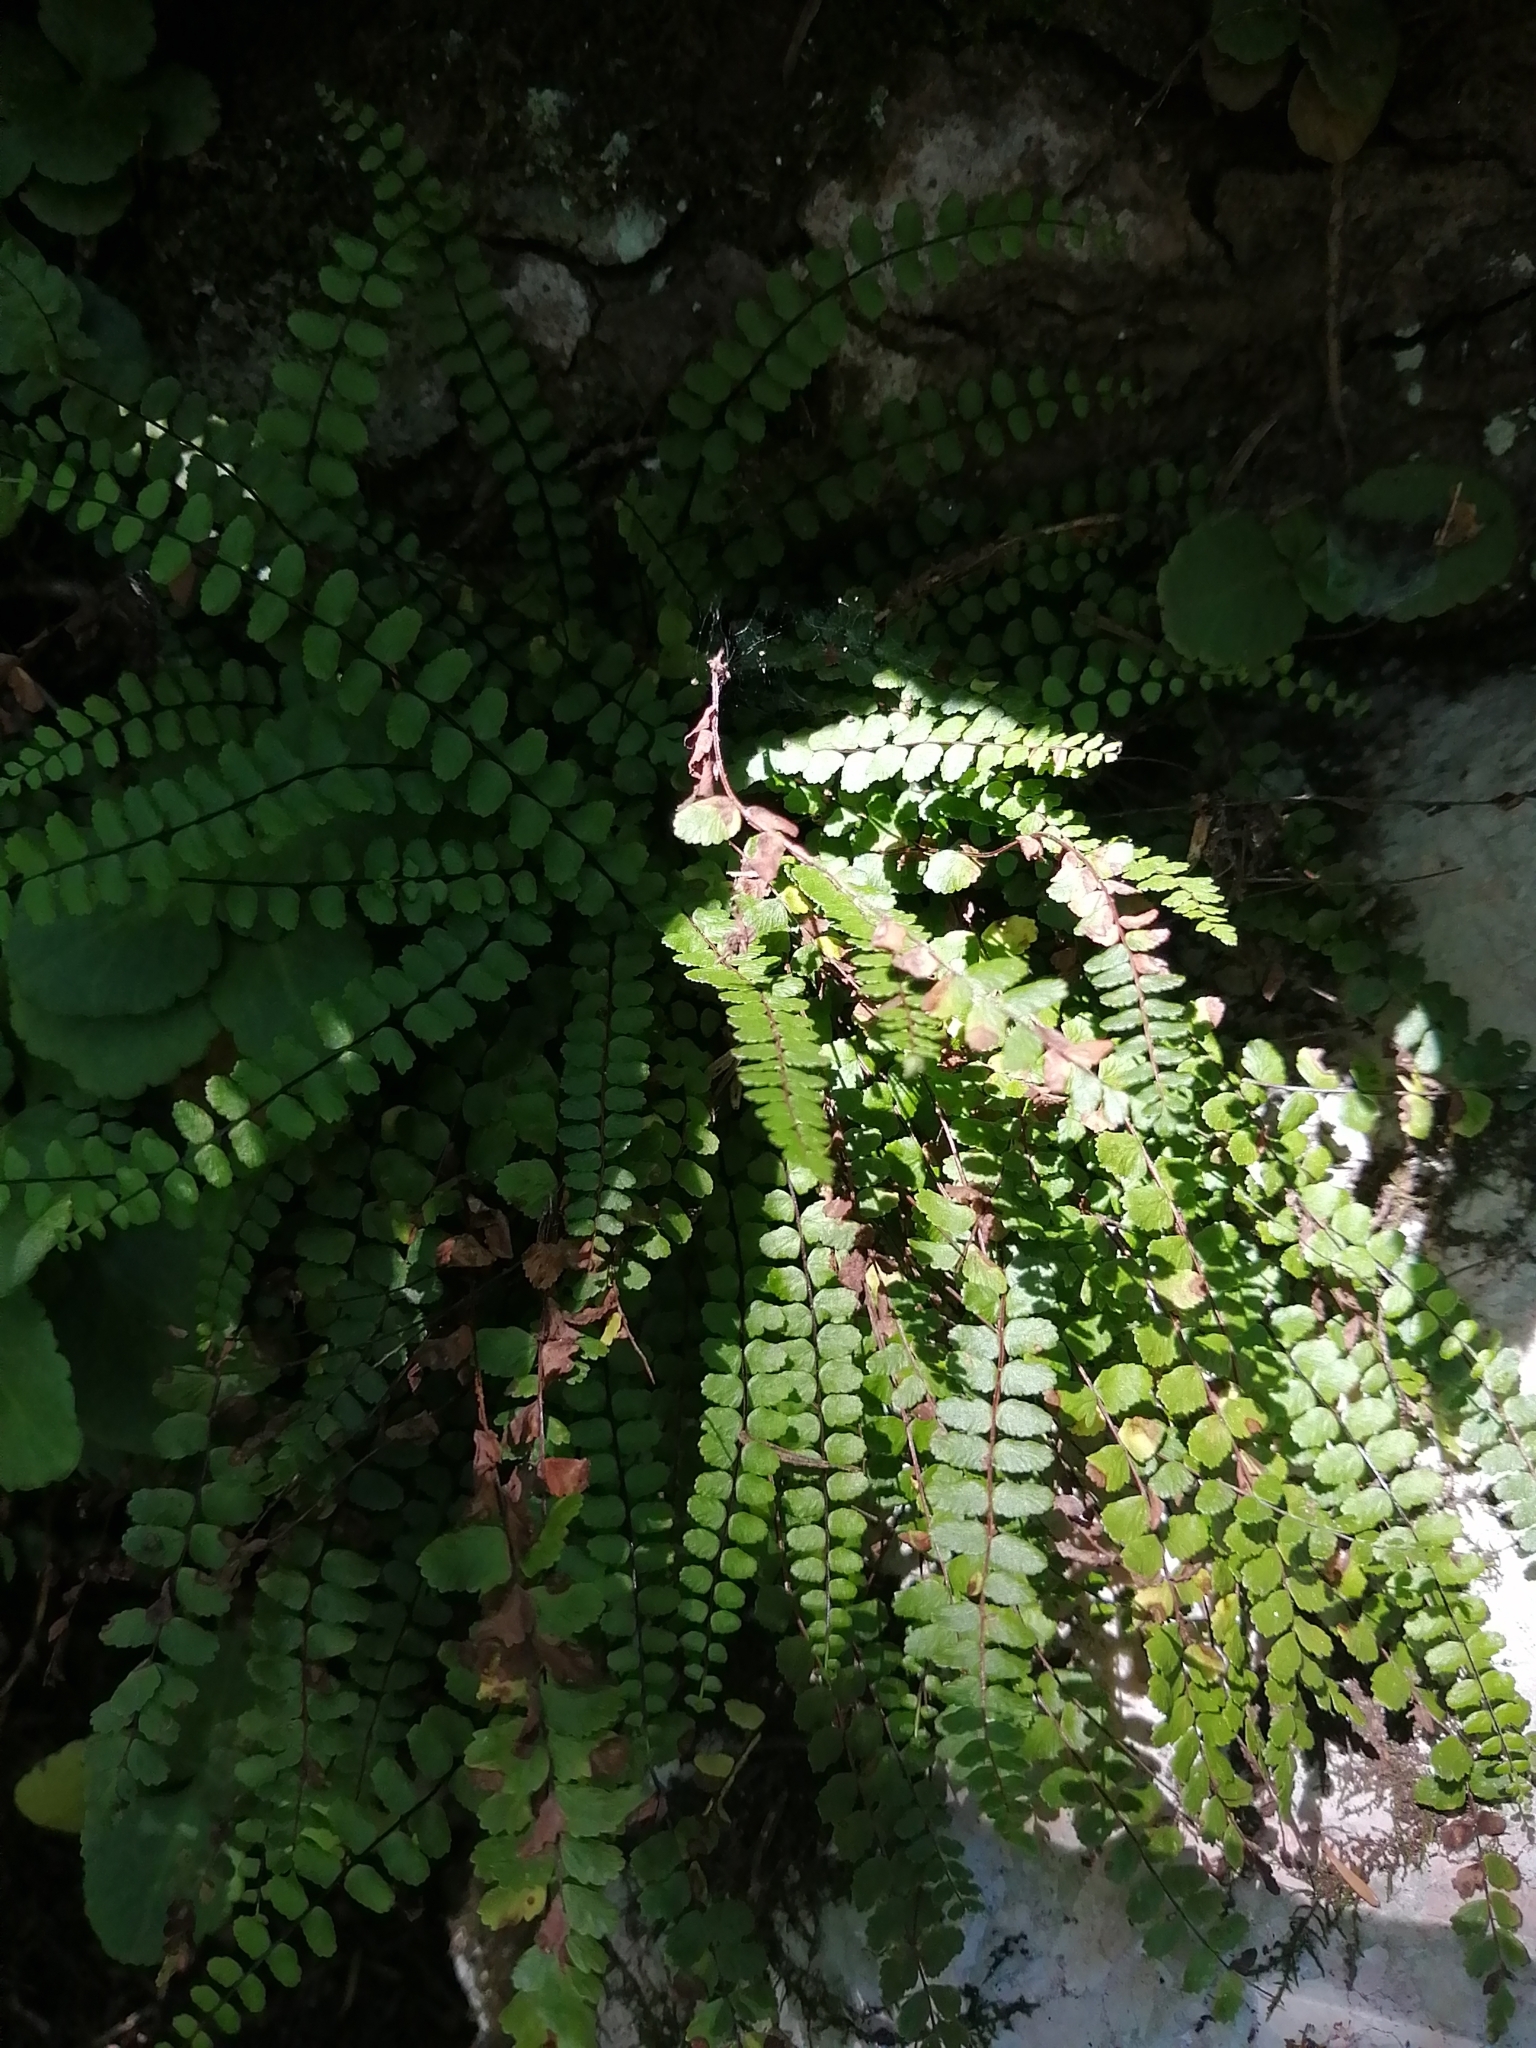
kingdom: Plantae
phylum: Tracheophyta
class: Polypodiopsida
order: Polypodiales
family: Aspleniaceae
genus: Asplenium
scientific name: Asplenium trichomanes
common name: Maidenhair spleenwort
